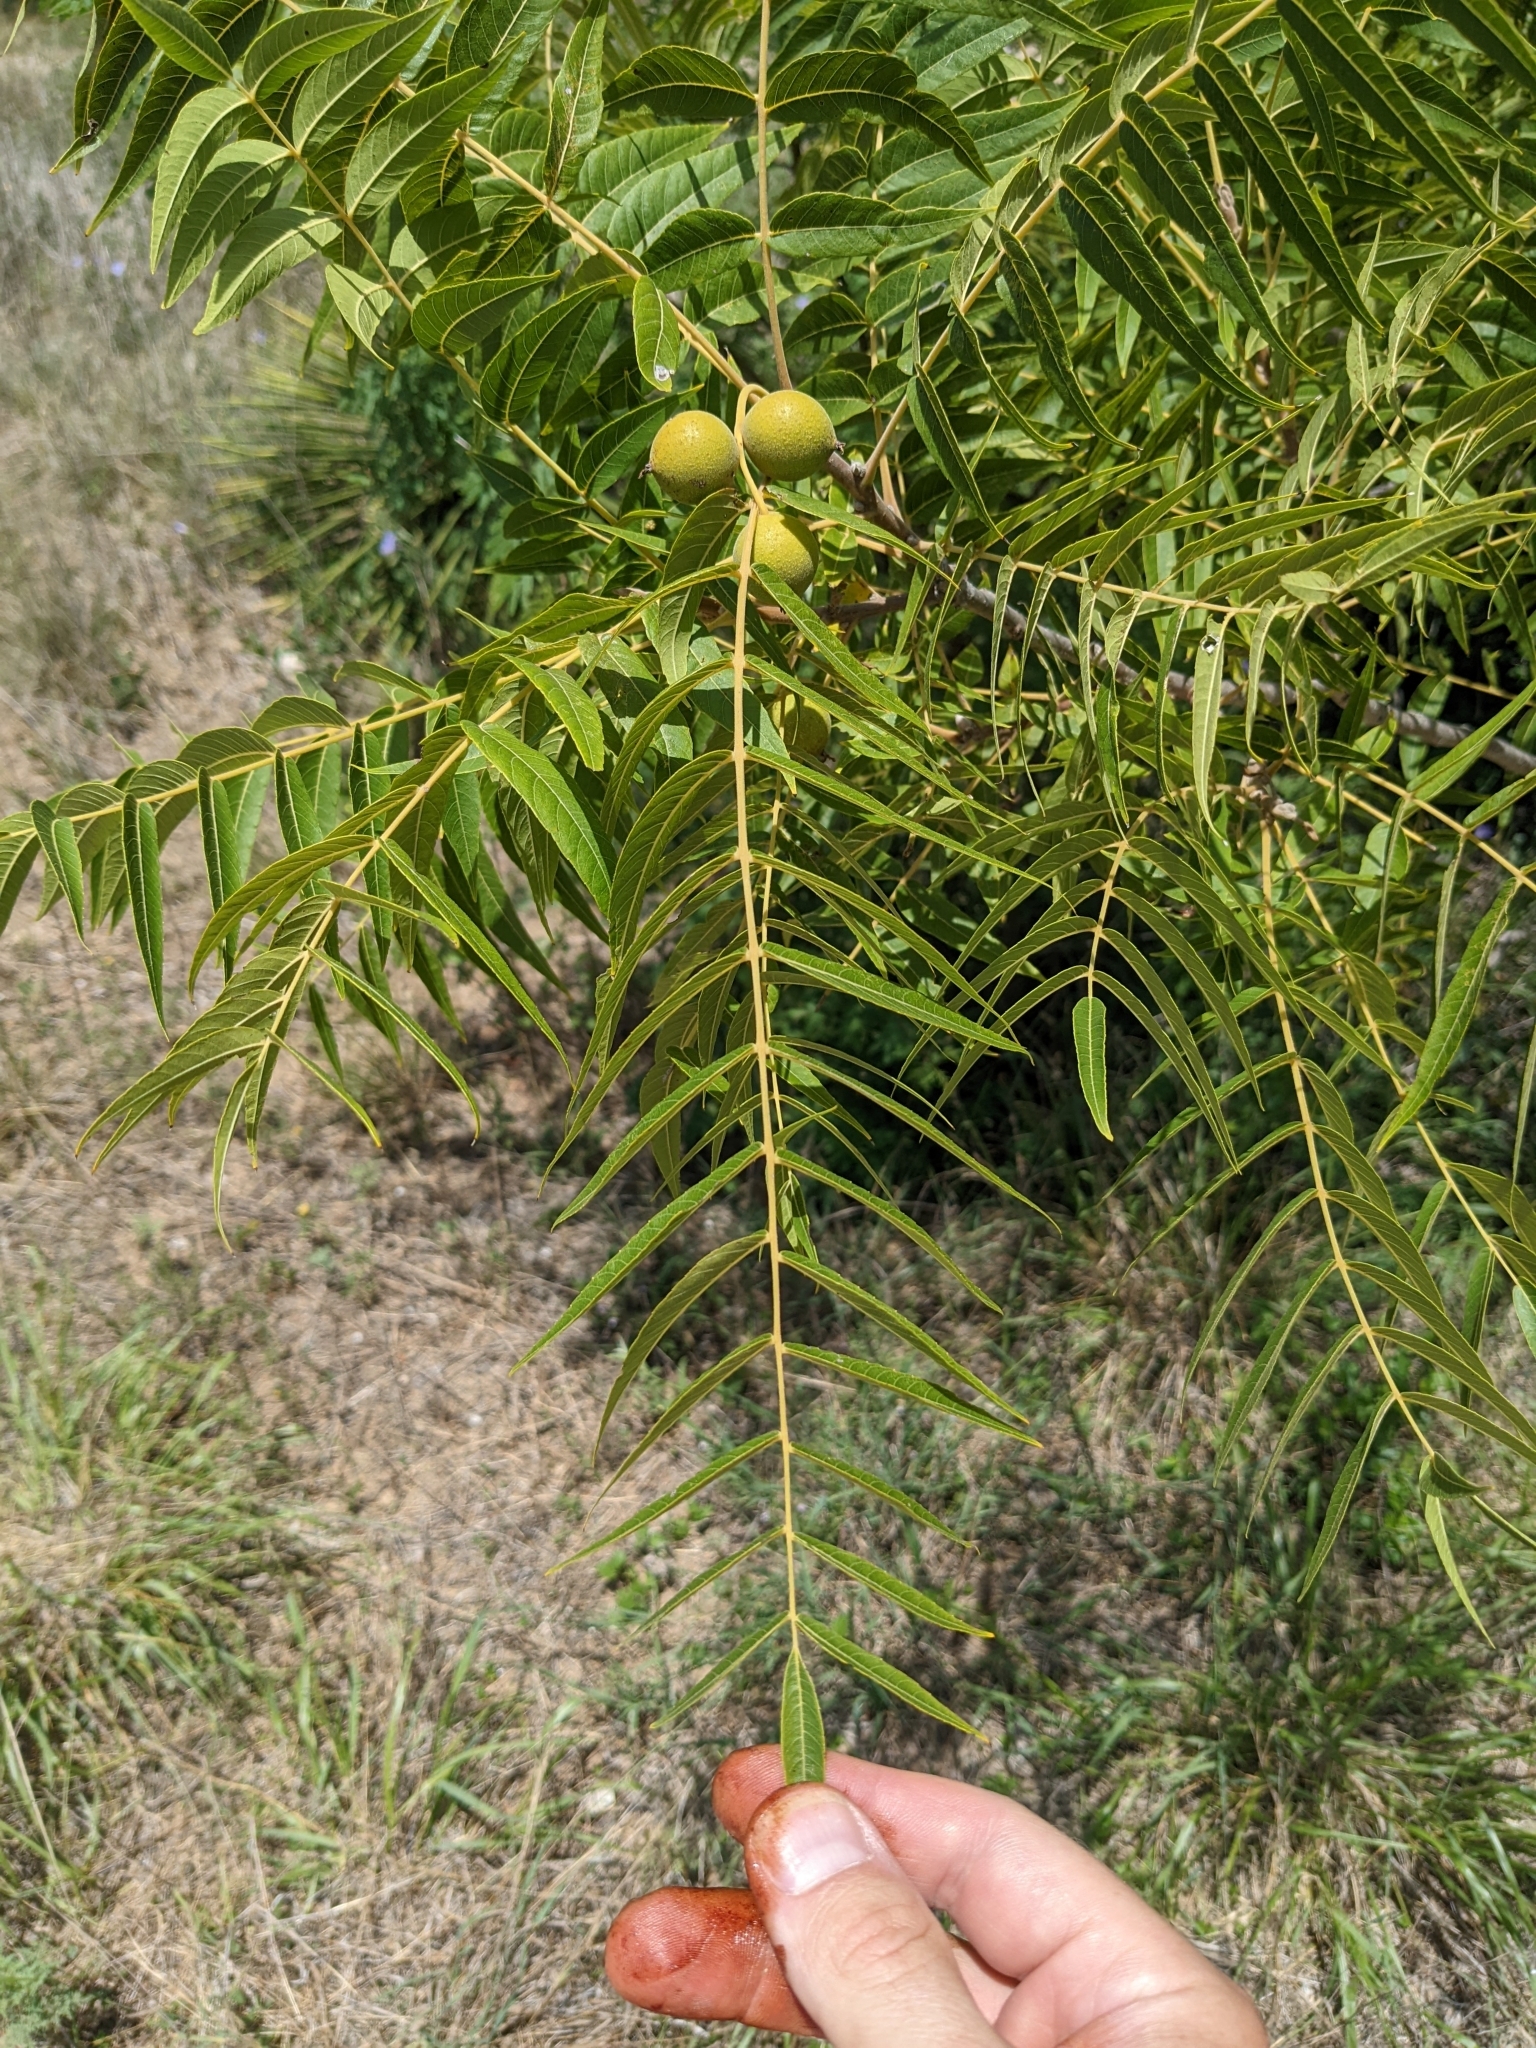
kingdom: Plantae
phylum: Tracheophyta
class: Magnoliopsida
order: Fagales
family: Juglandaceae
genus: Juglans
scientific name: Juglans microcarpa
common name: Texas walnut
